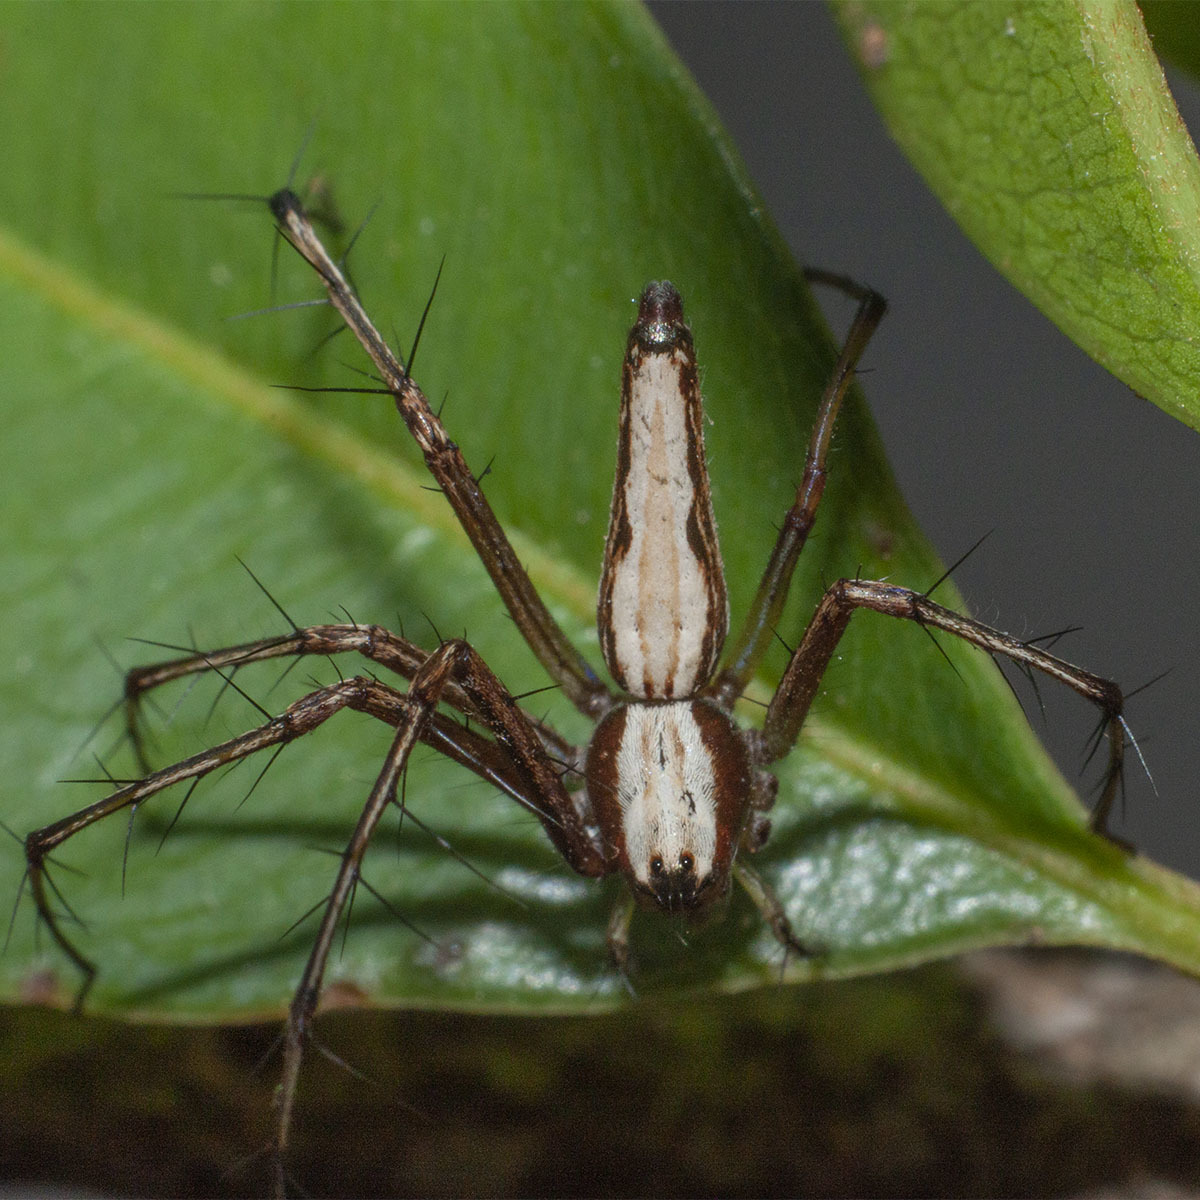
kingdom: Animalia
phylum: Arthropoda
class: Arachnida
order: Araneae
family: Oxyopidae
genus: Oxyopes
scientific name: Oxyopes shweta
